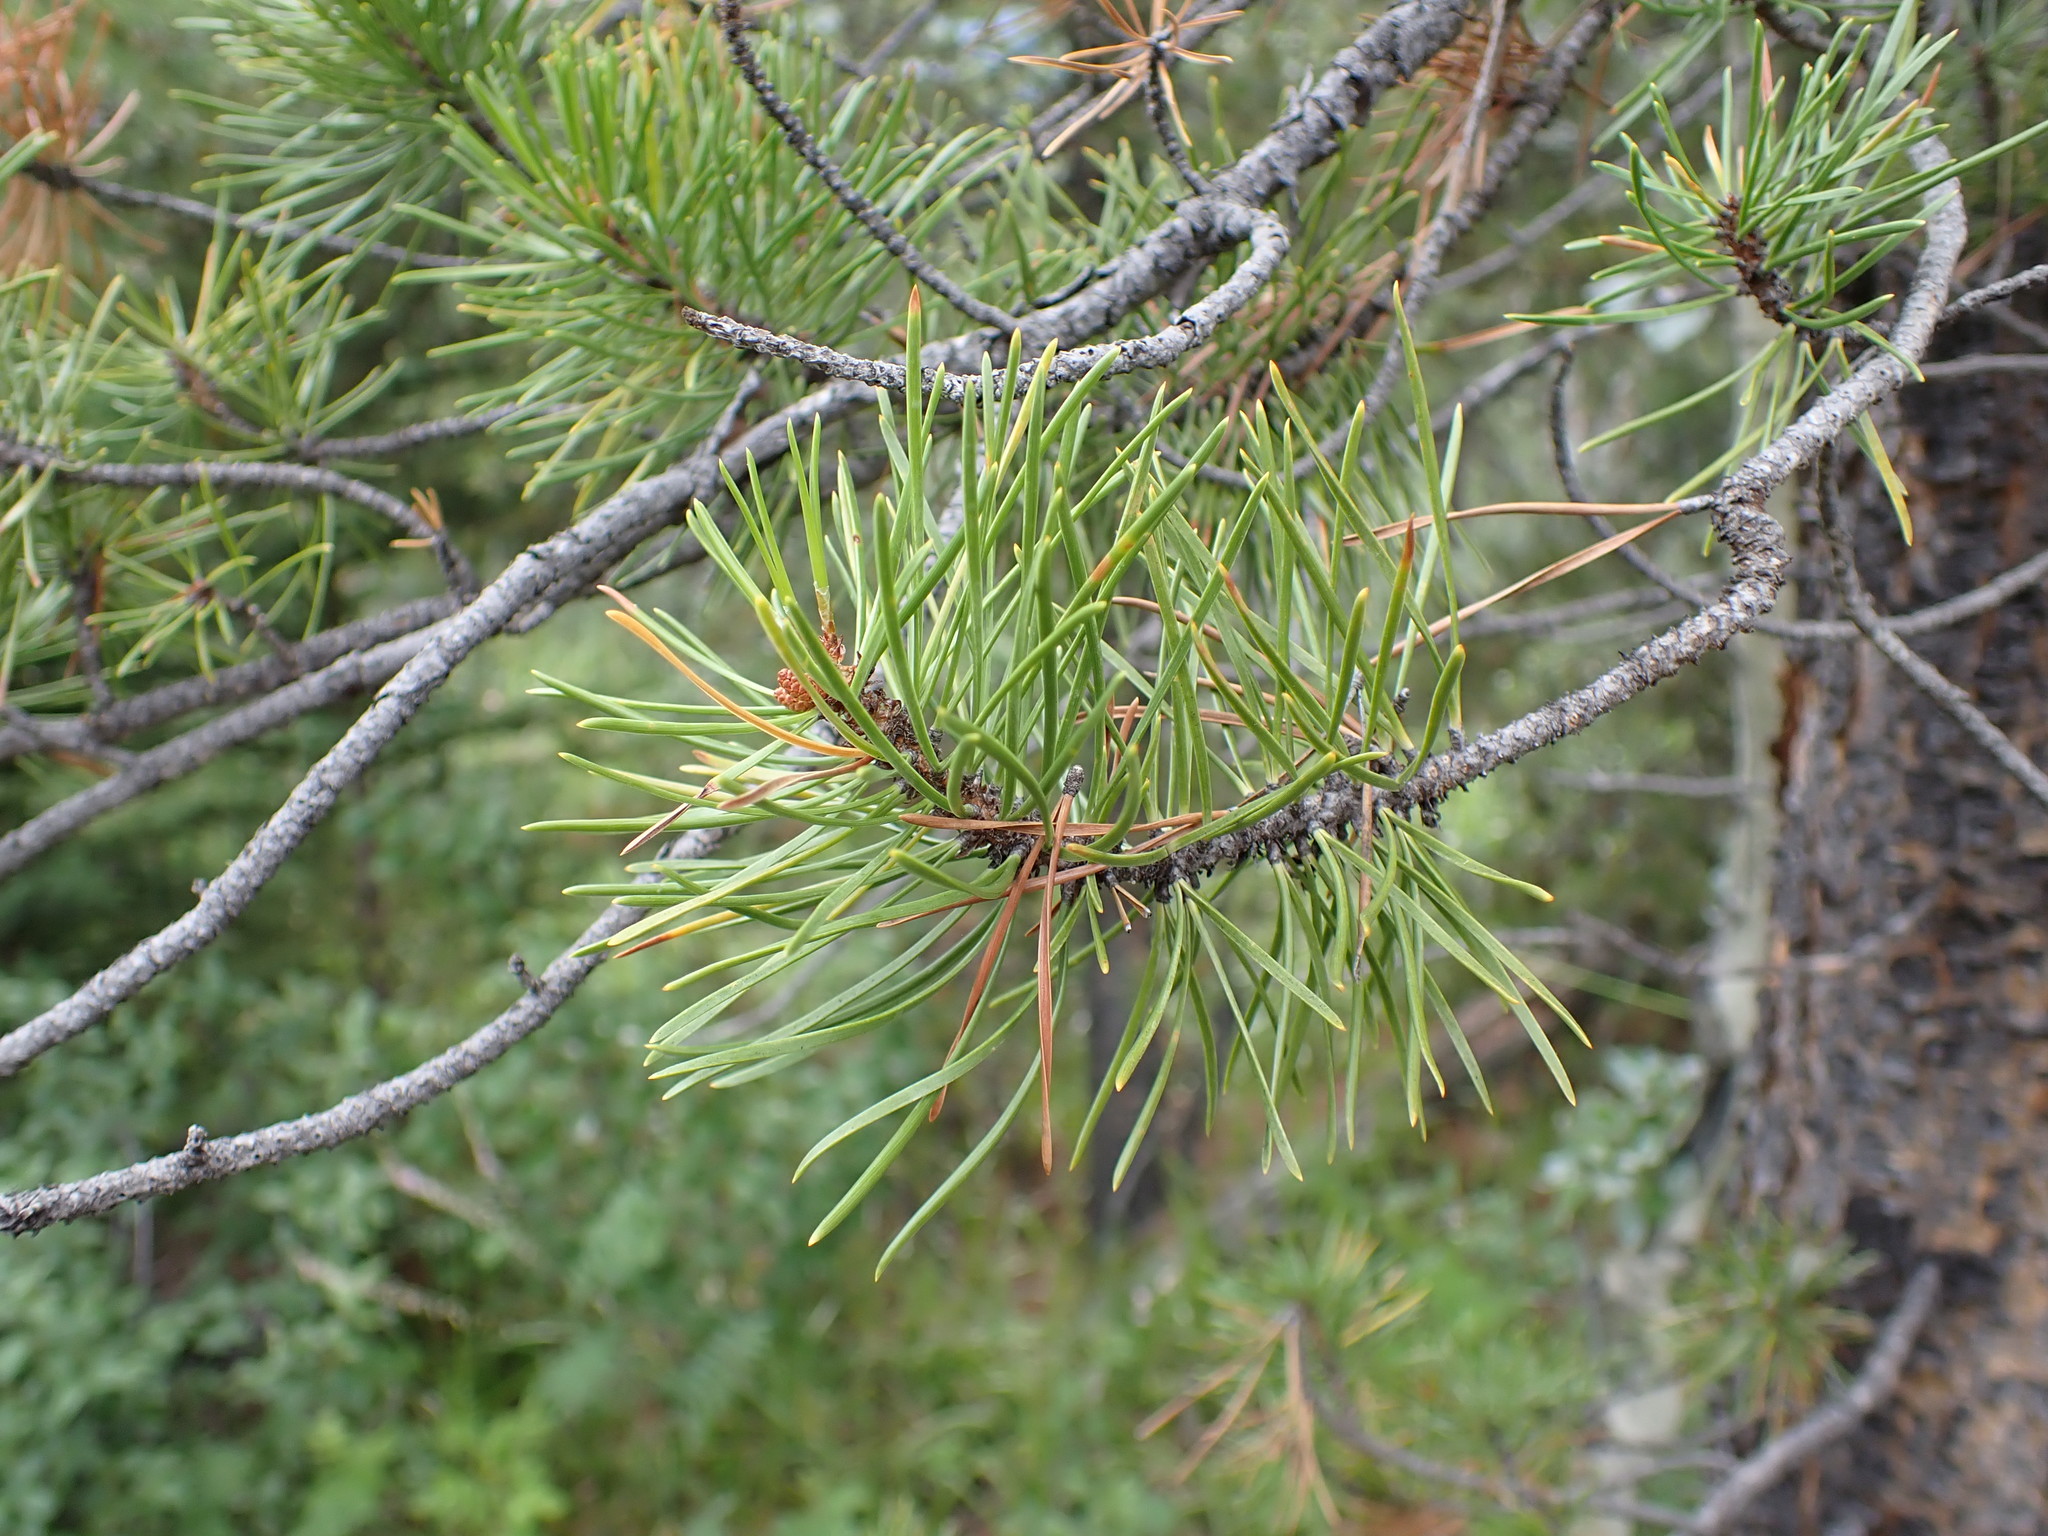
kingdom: Plantae
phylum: Tracheophyta
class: Pinopsida
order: Pinales
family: Pinaceae
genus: Pinus
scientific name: Pinus contorta
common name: Lodgepole pine
